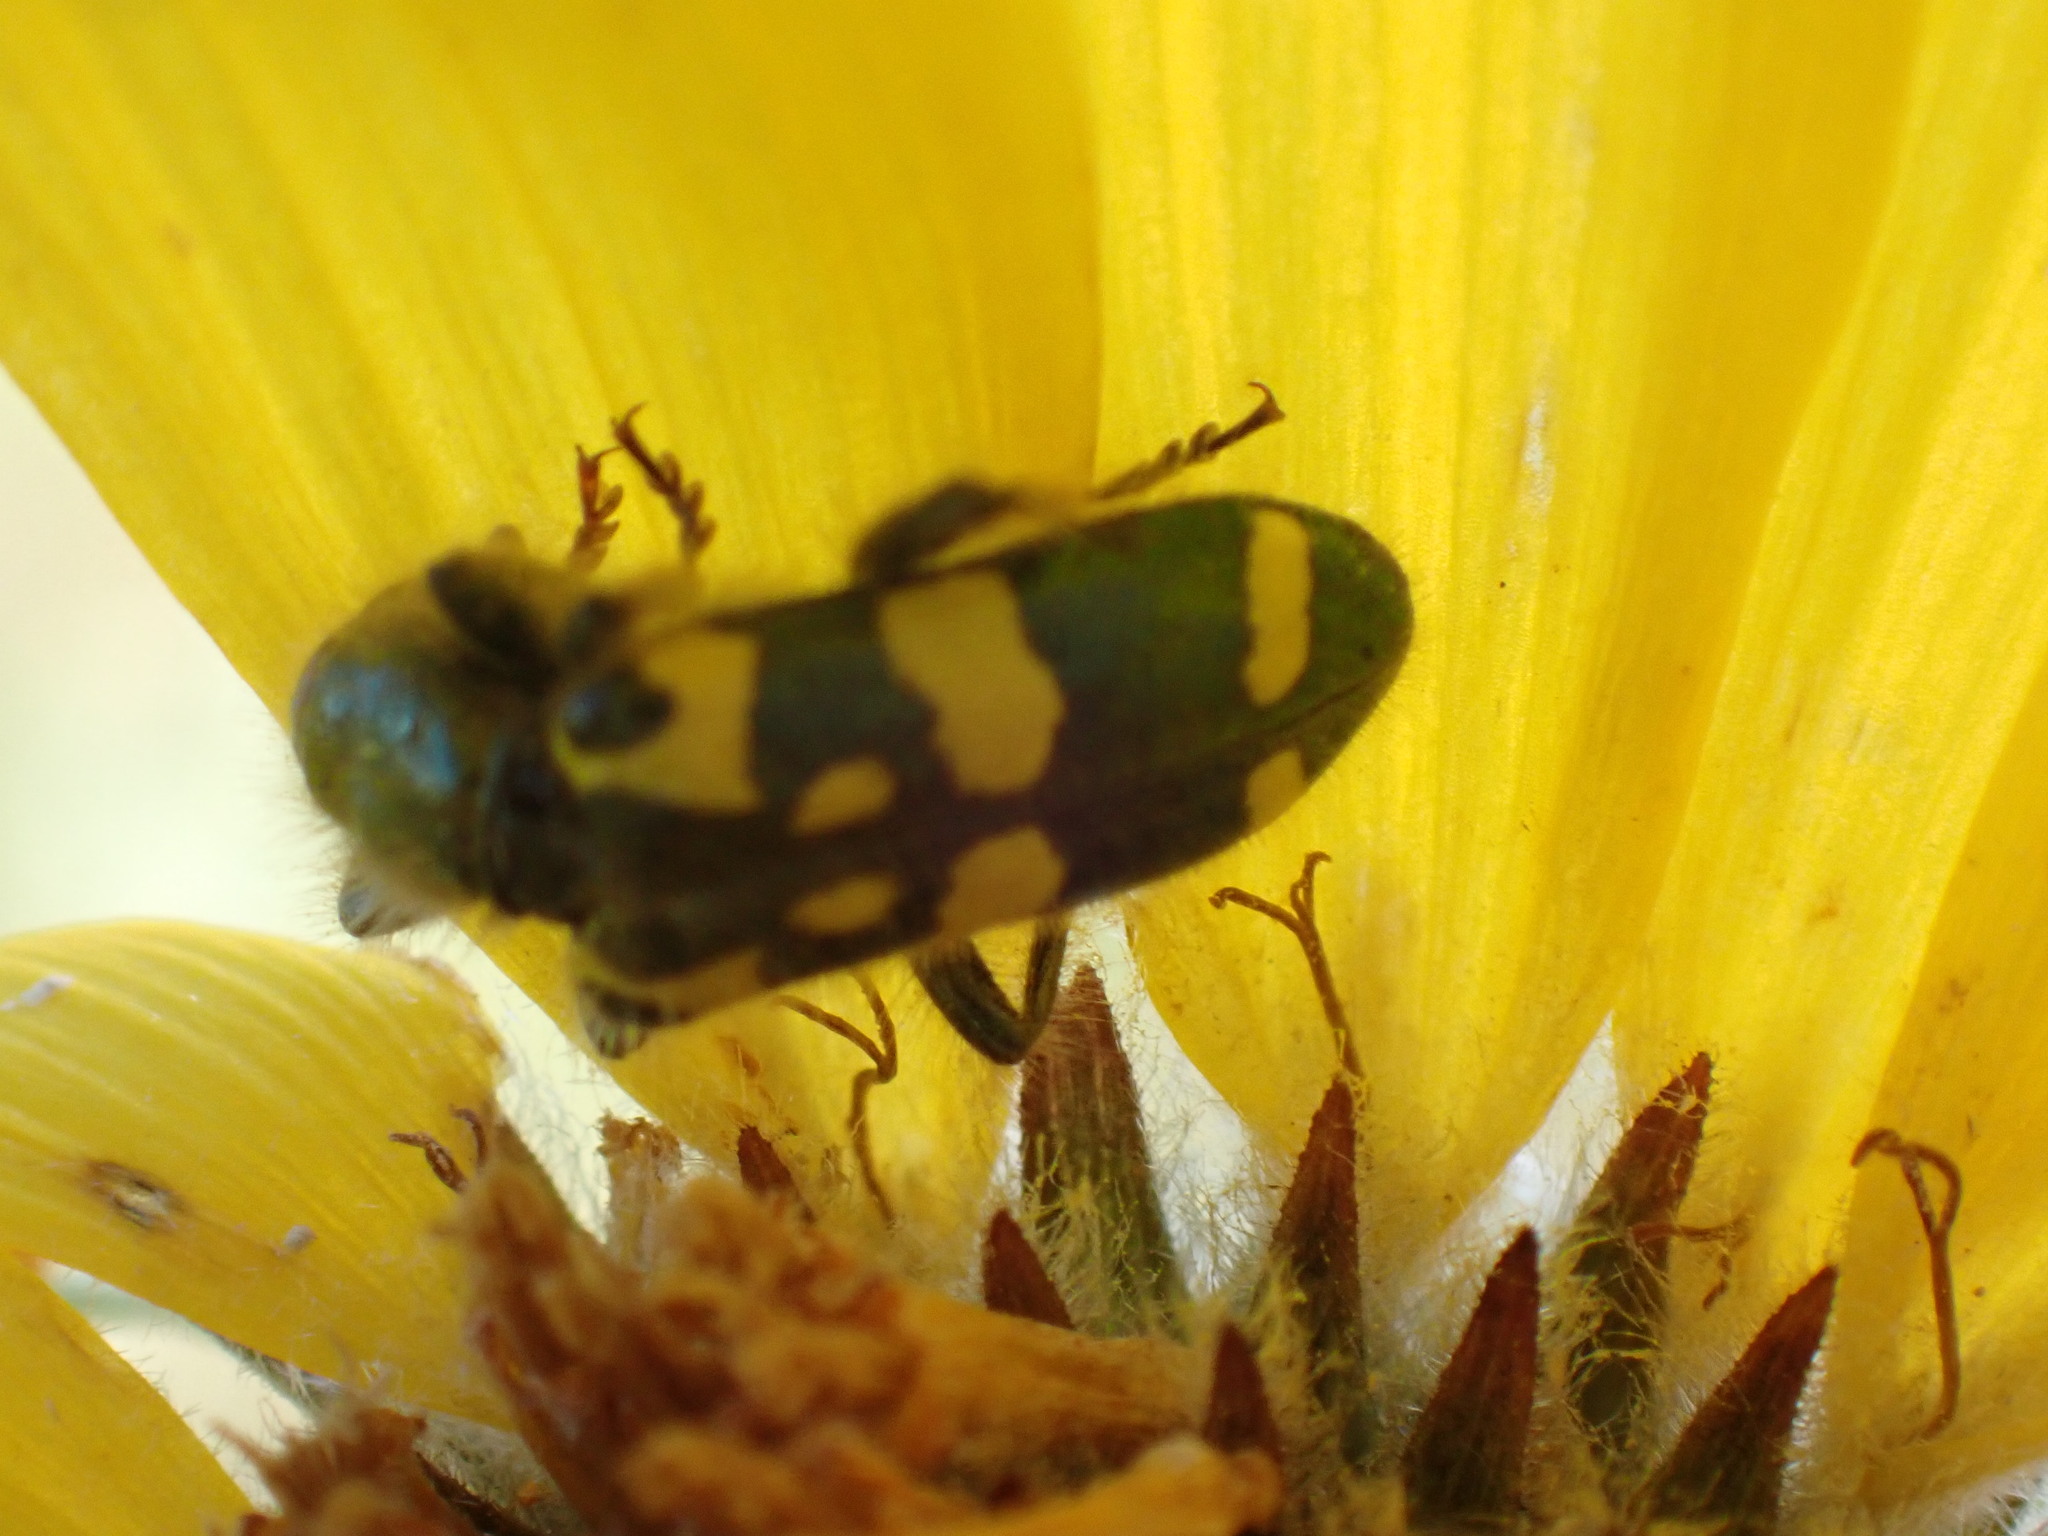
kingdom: Animalia
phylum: Arthropoda
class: Insecta
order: Coleoptera
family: Cleridae
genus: Trichodes
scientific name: Trichodes ornatus
